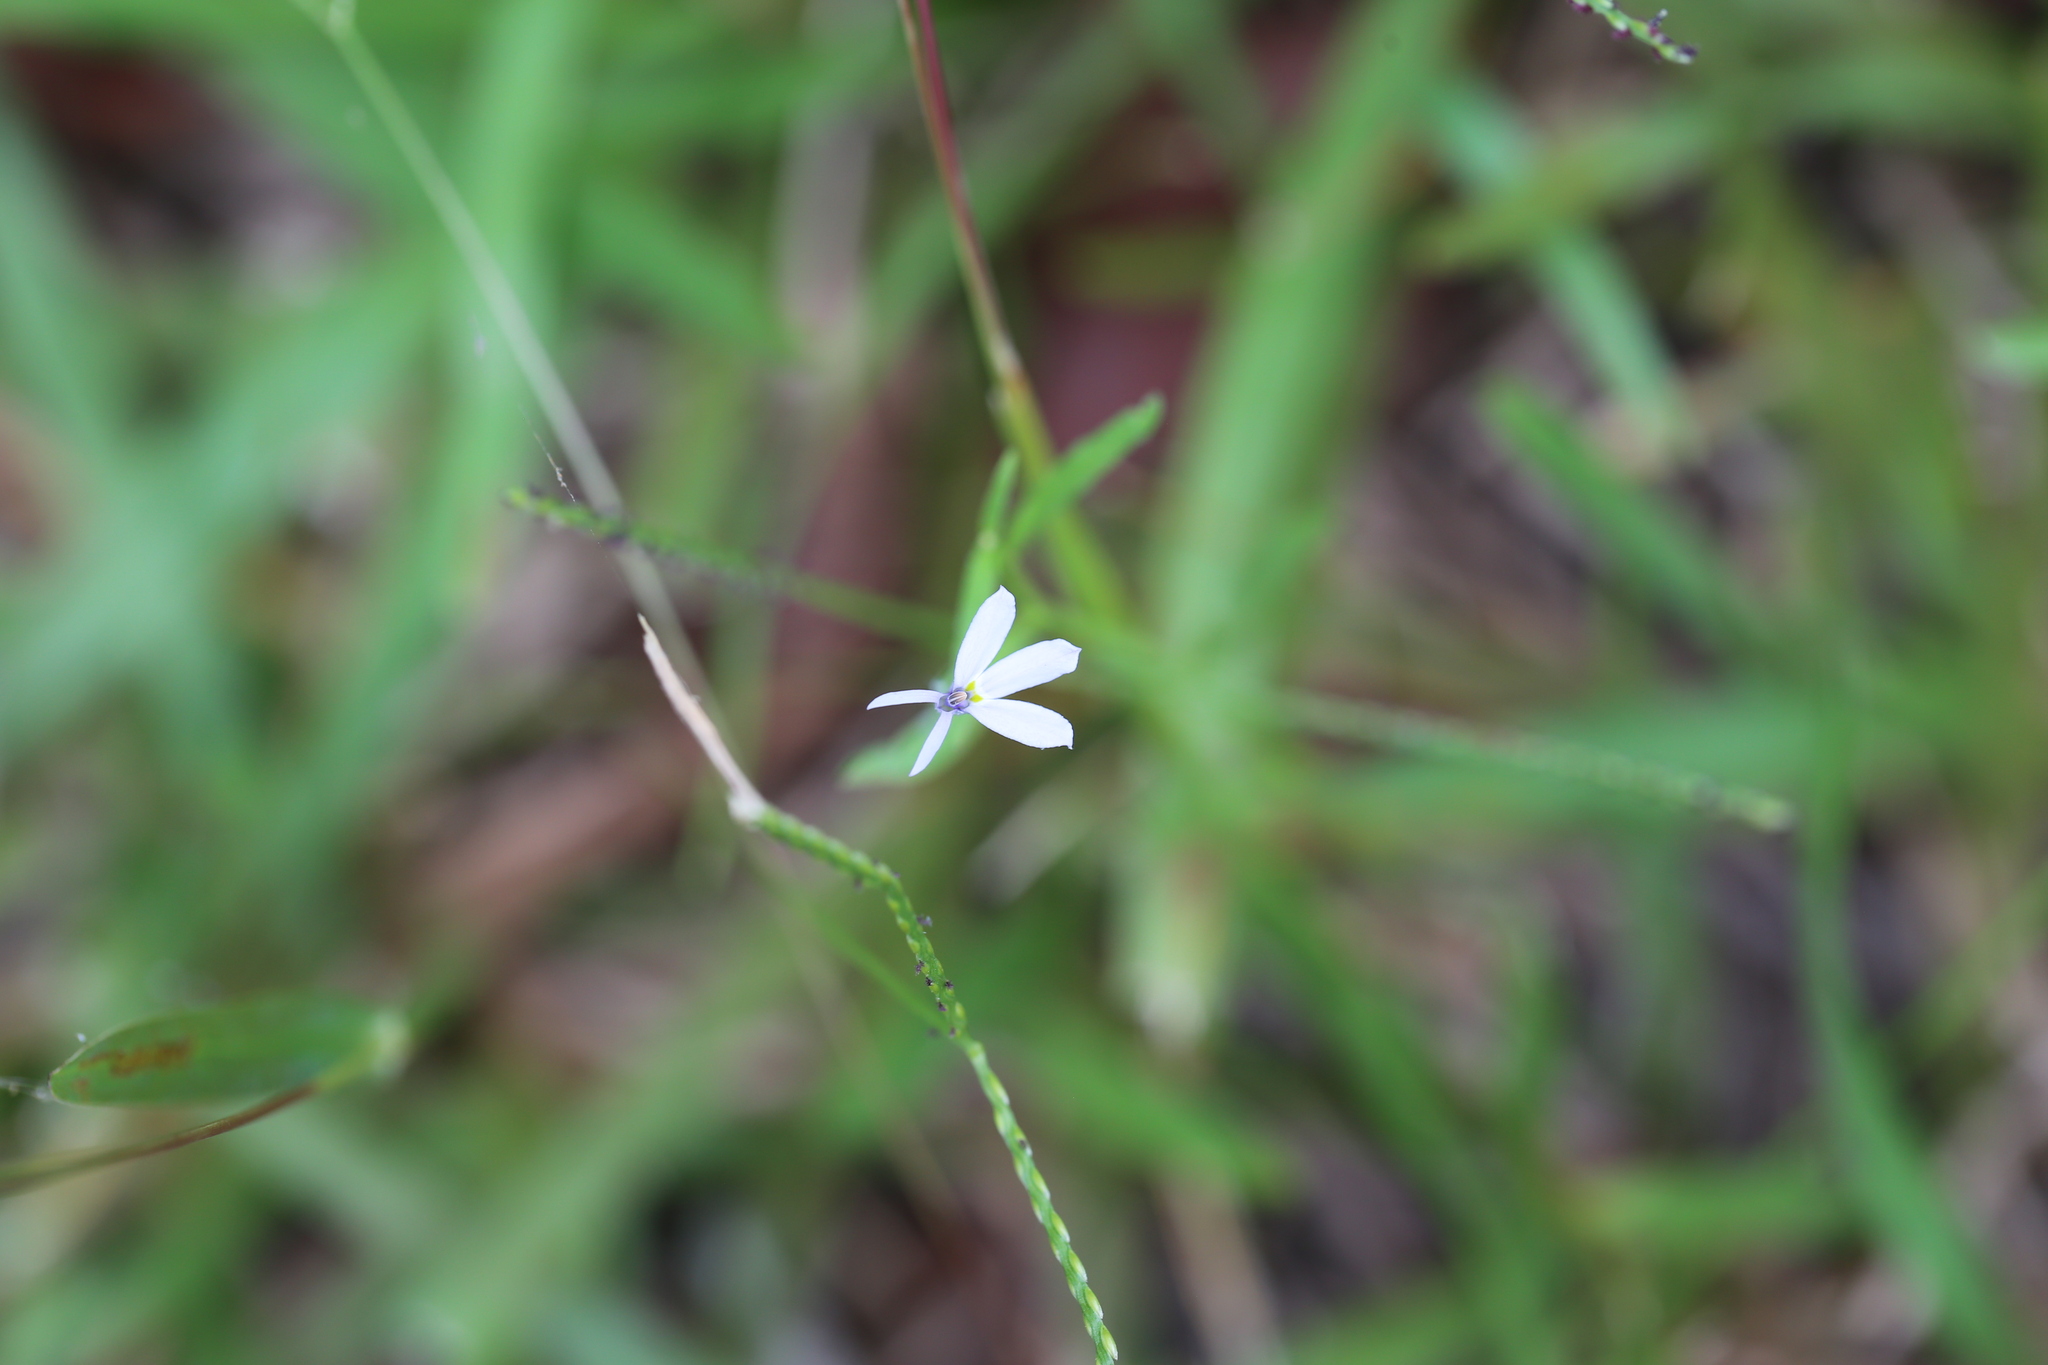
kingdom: Plantae
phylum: Tracheophyta
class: Magnoliopsida
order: Asterales
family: Campanulaceae
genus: Lobelia
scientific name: Lobelia purpurascens
